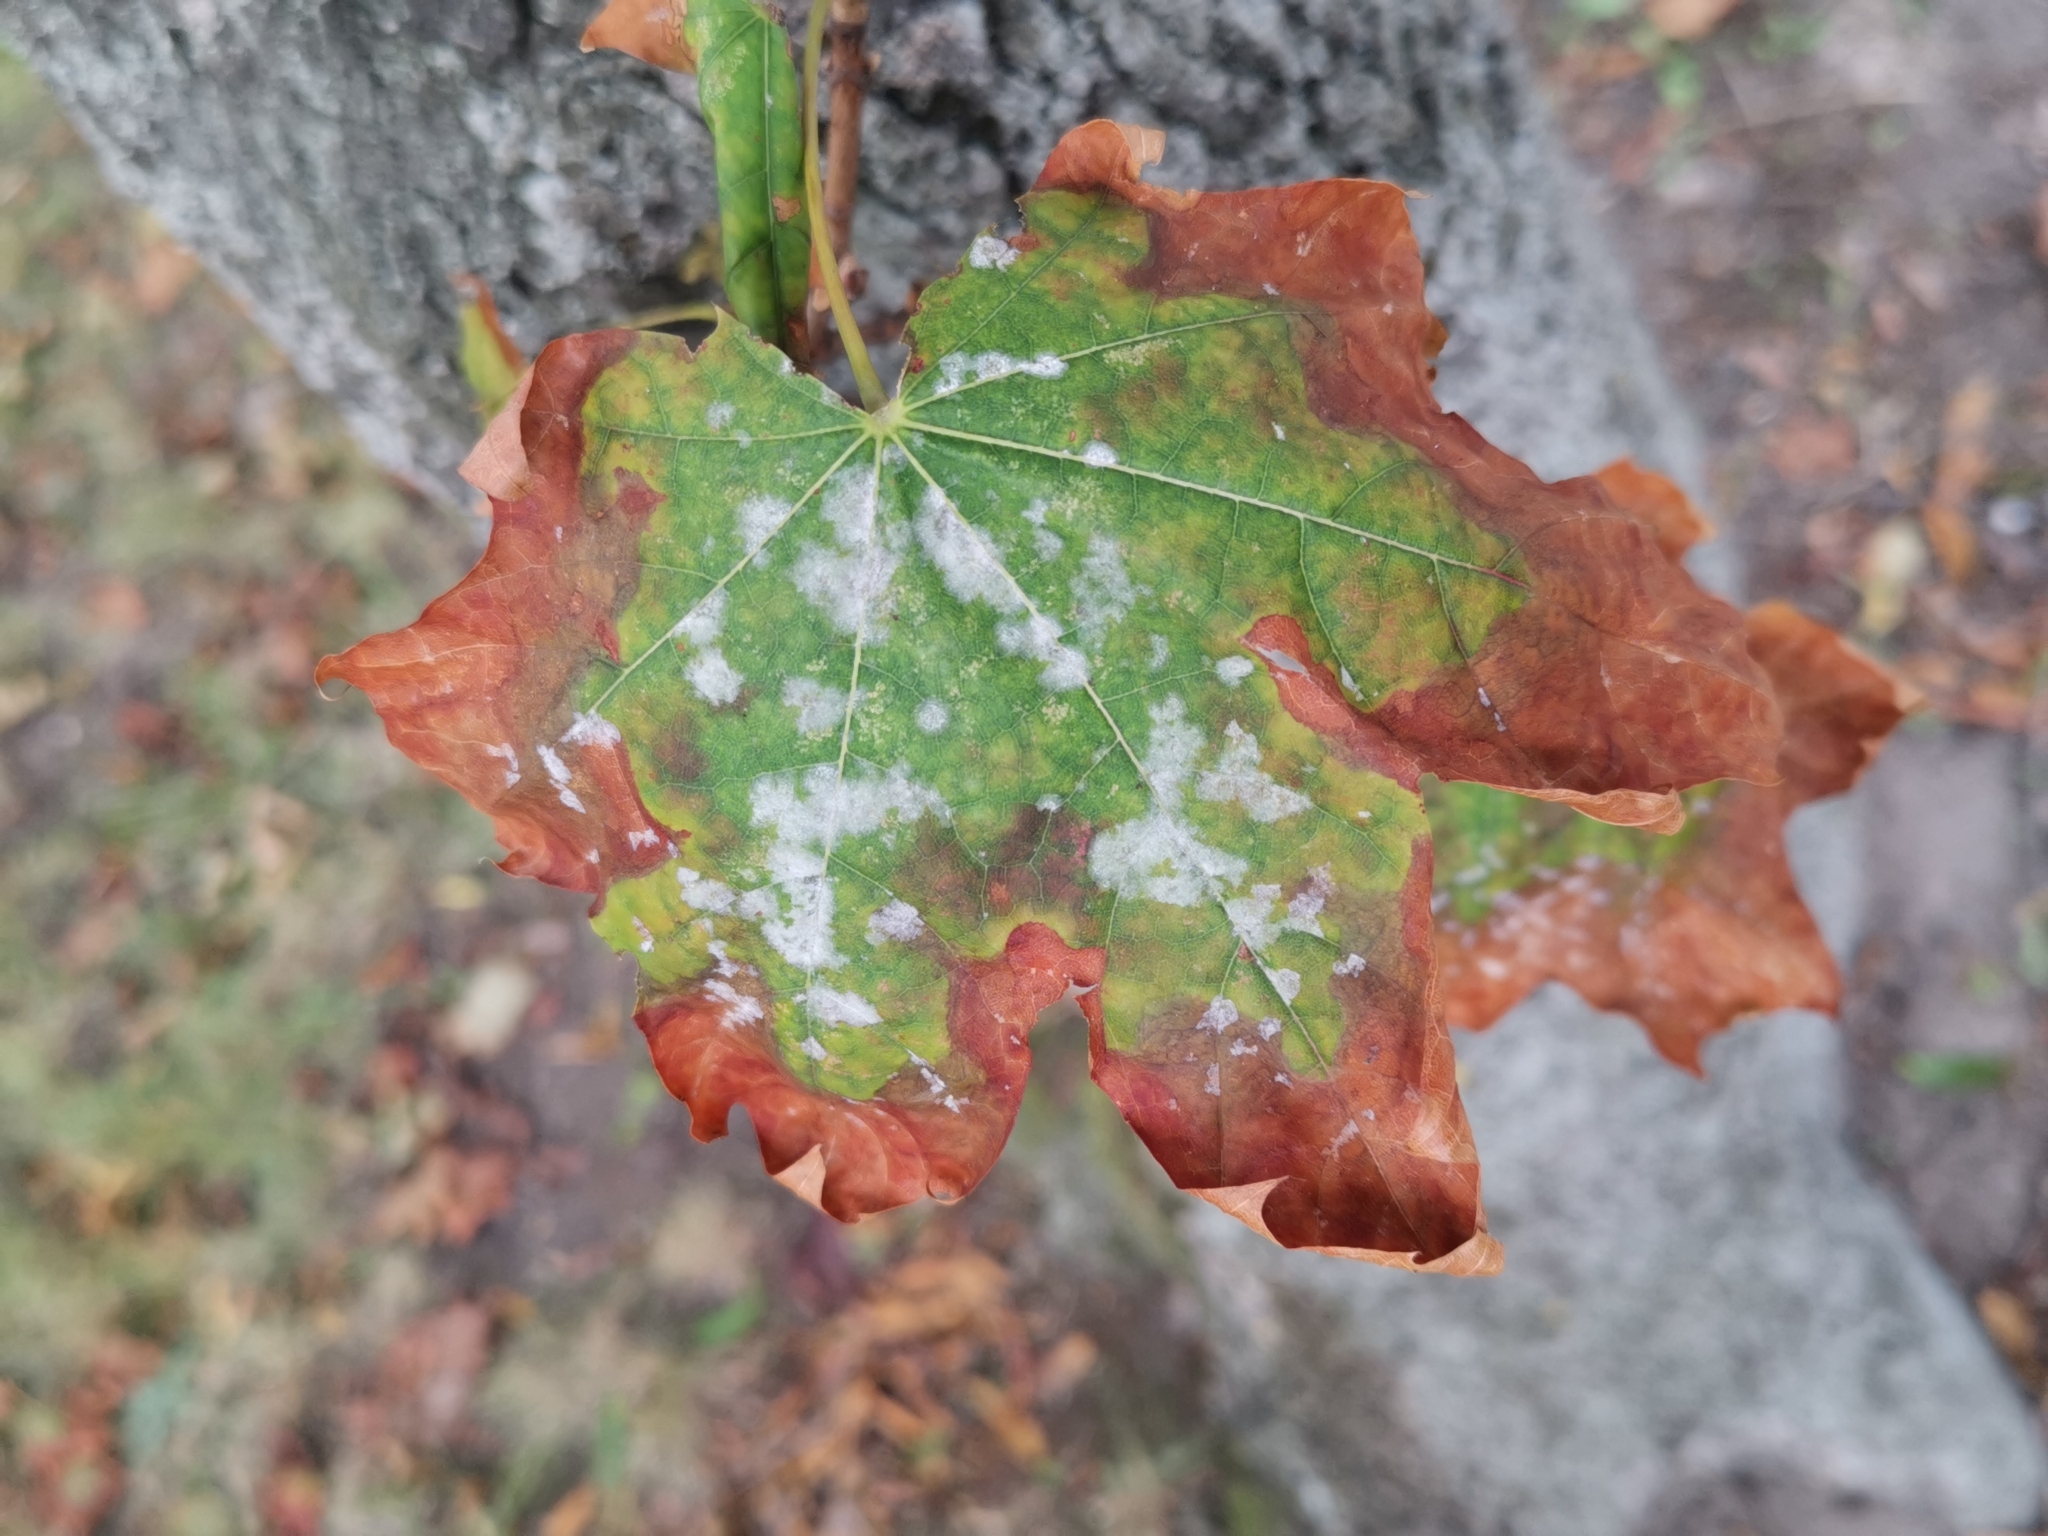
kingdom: Fungi
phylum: Ascomycota
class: Leotiomycetes
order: Helotiales
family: Erysiphaceae
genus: Sawadaea
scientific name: Sawadaea tulasnei
